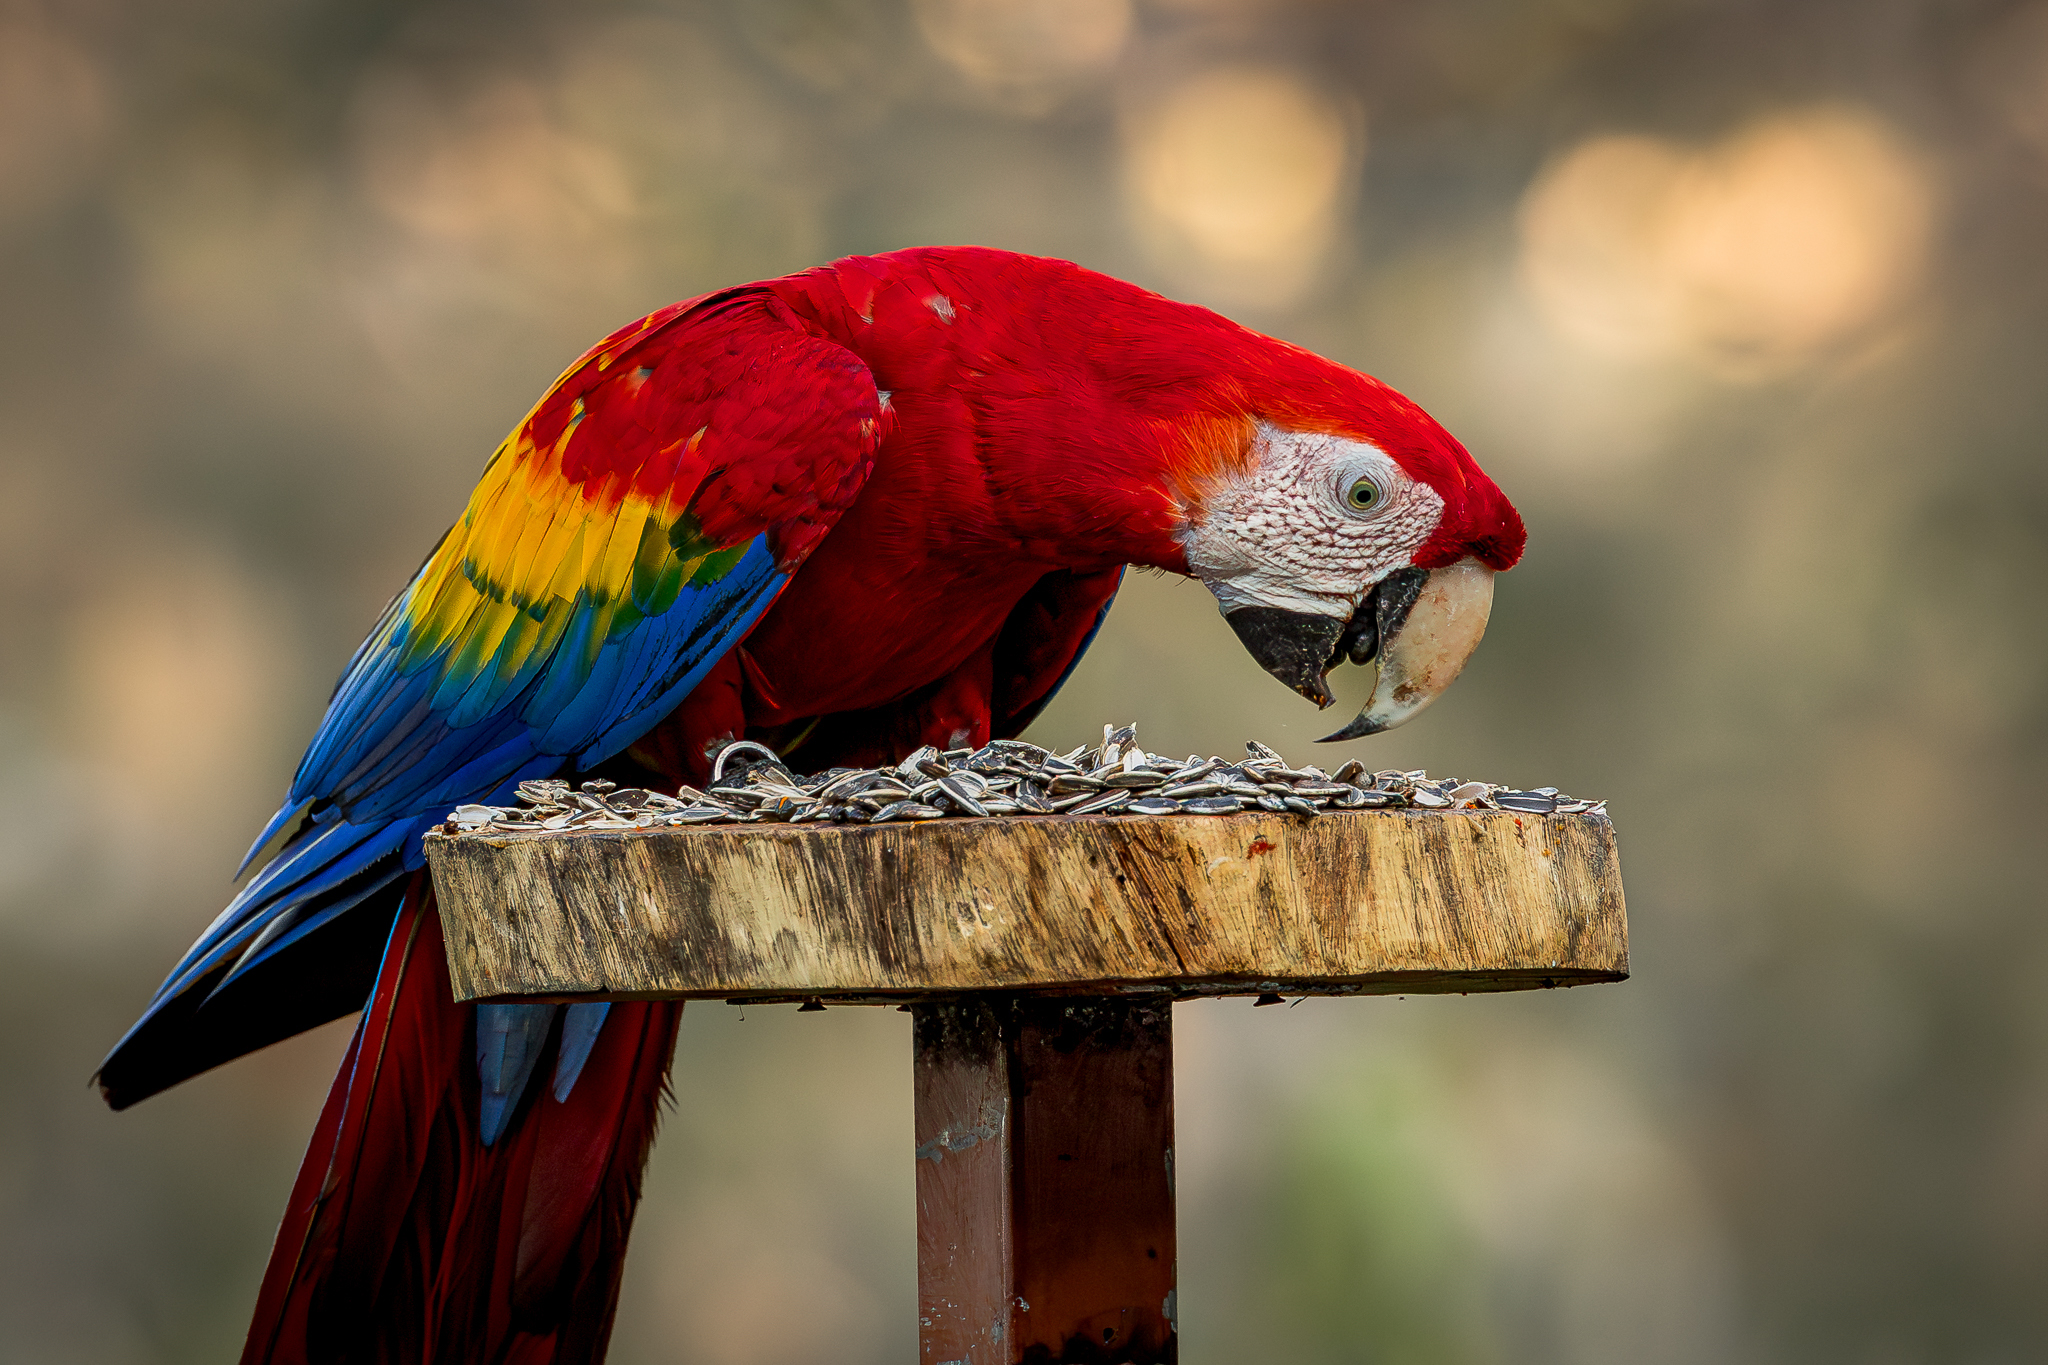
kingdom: Animalia
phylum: Chordata
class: Aves
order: Psittaciformes
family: Psittacidae
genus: Ara
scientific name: Ara macao
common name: Scarlet macaw
